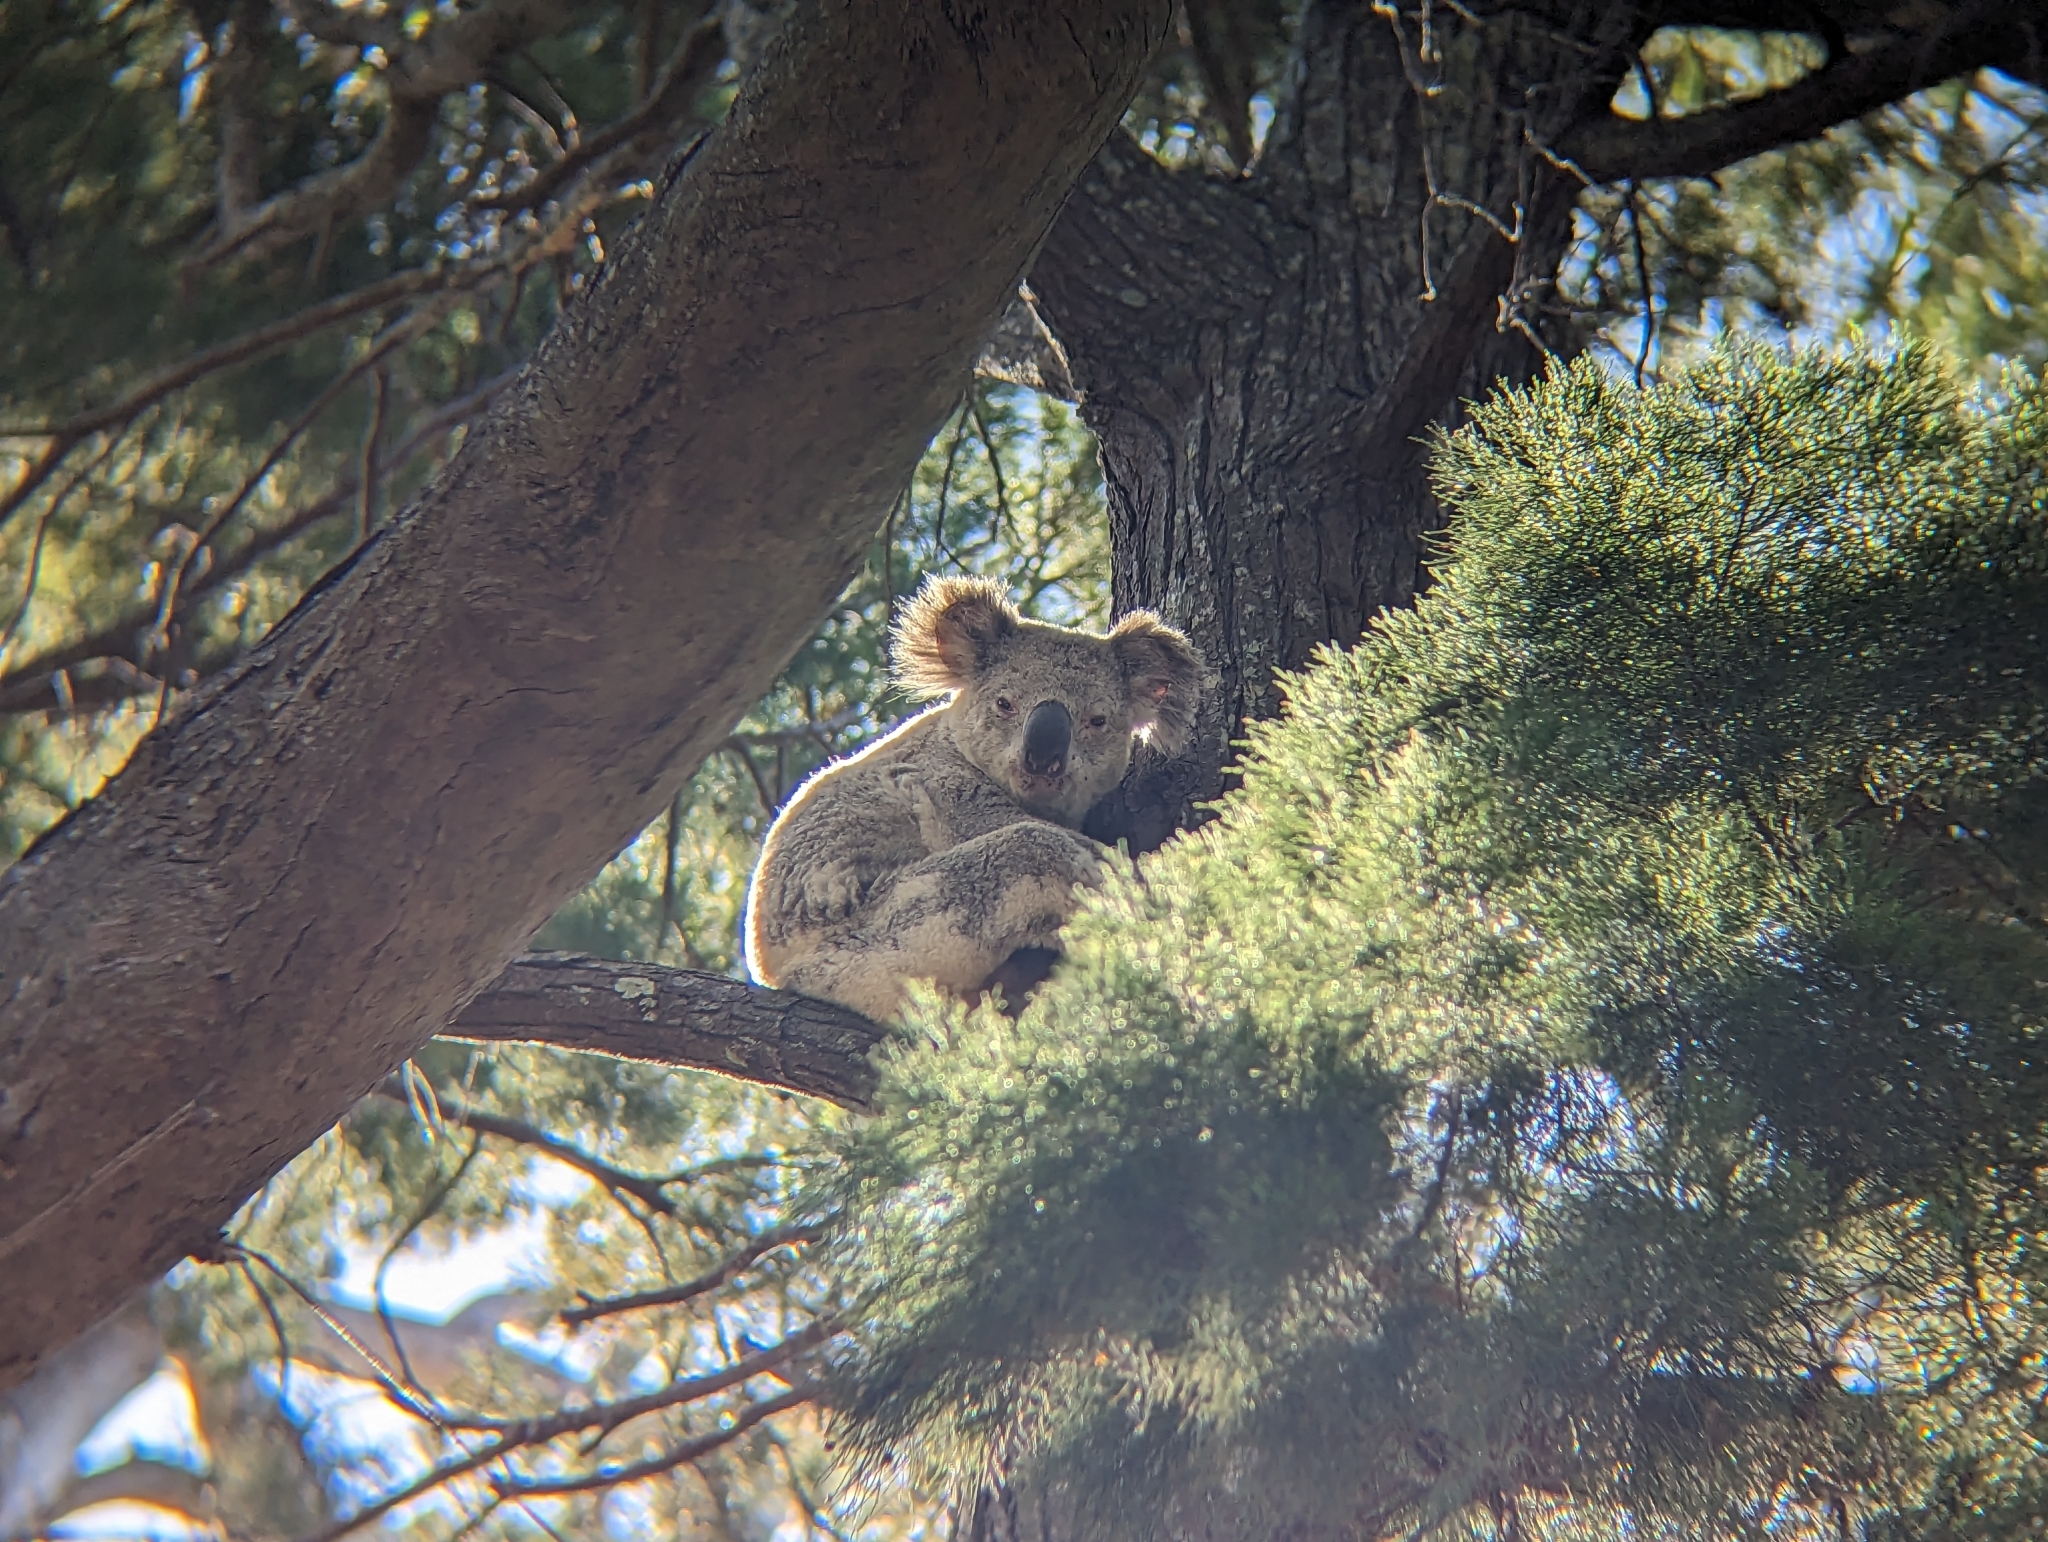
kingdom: Animalia
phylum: Chordata
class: Mammalia
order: Diprotodontia
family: Phascolarctidae
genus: Phascolarctos
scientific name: Phascolarctos cinereus
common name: Koala
